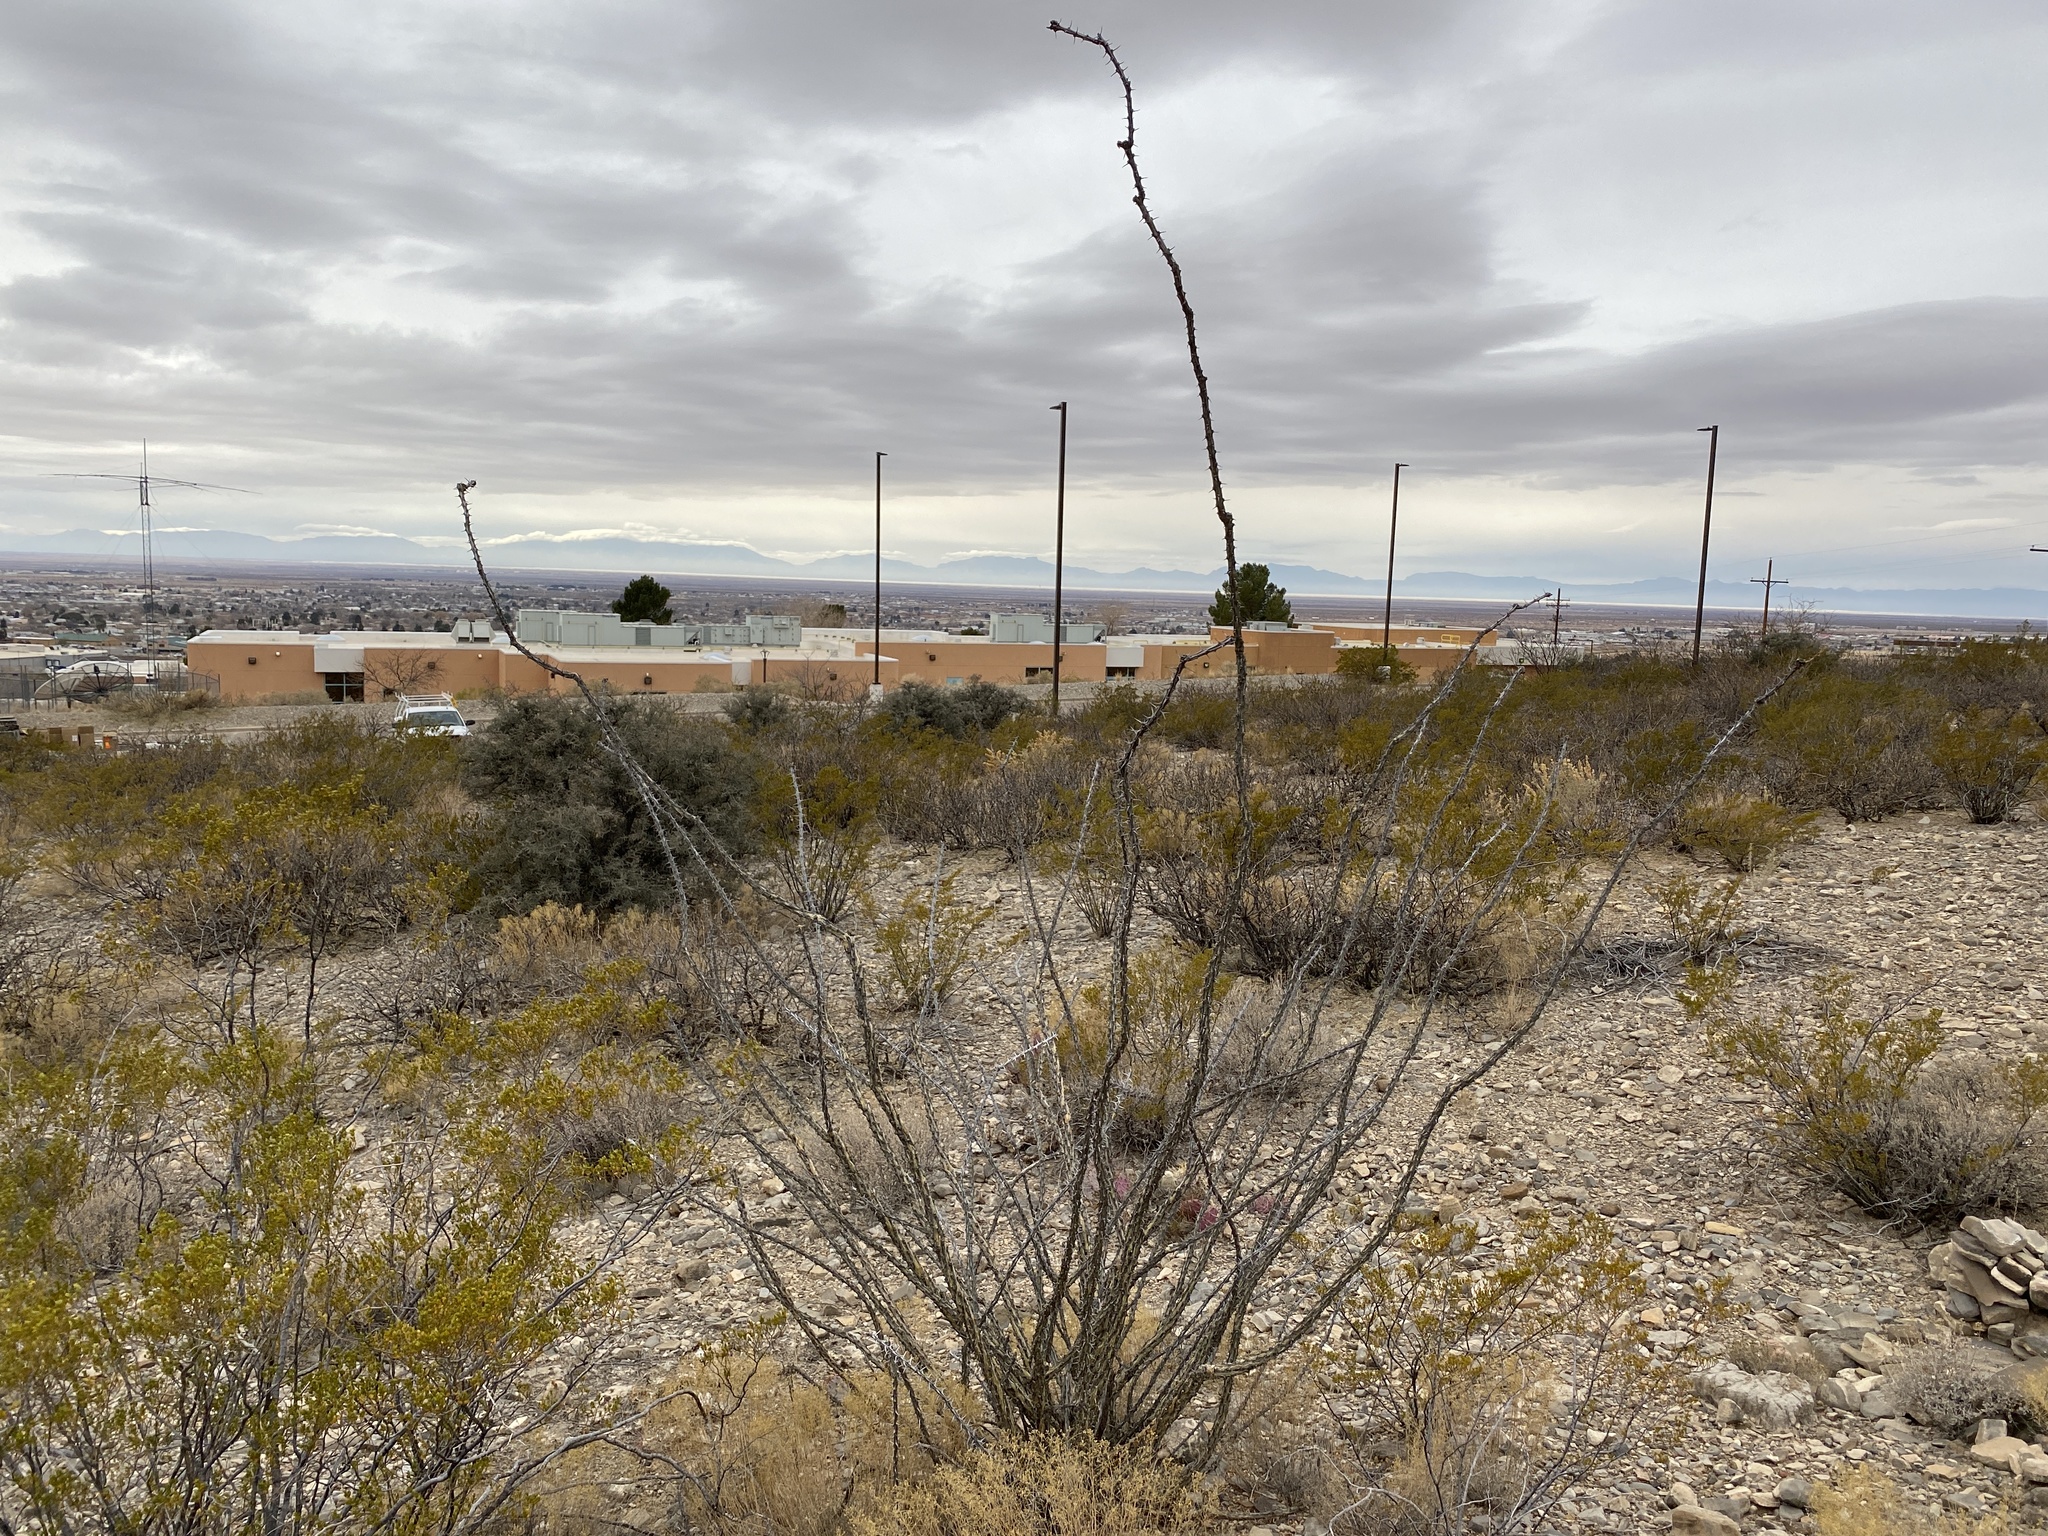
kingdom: Plantae
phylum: Tracheophyta
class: Magnoliopsida
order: Ericales
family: Fouquieriaceae
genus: Fouquieria
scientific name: Fouquieria splendens
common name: Vine-cactus
